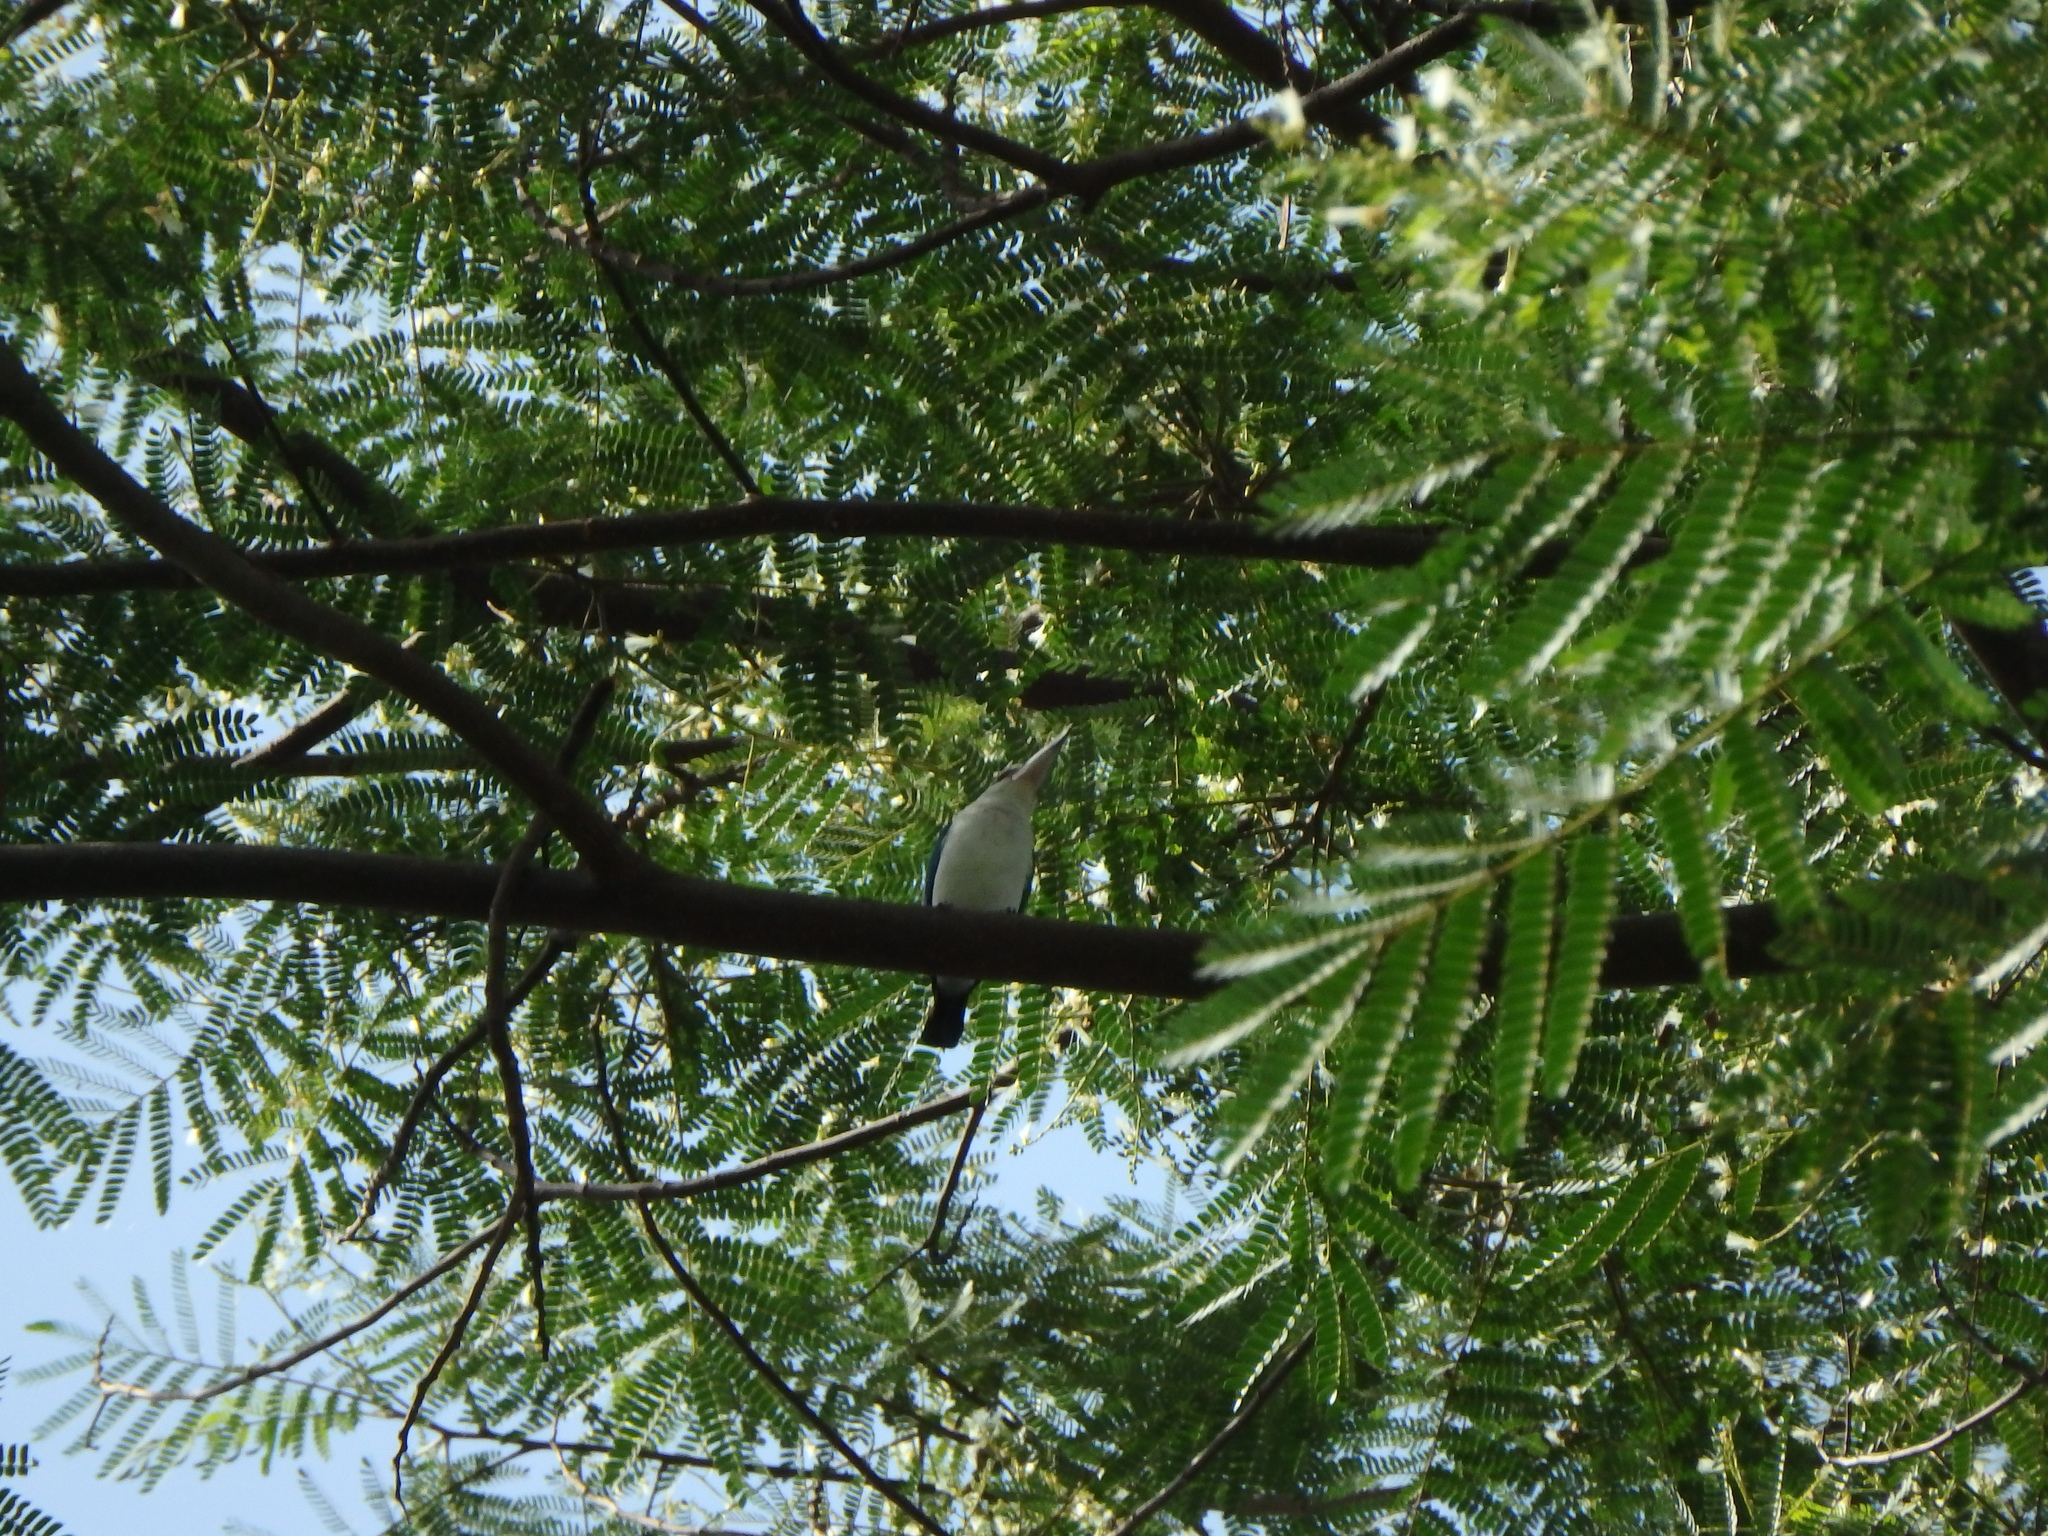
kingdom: Animalia
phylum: Chordata
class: Aves
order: Coraciiformes
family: Alcedinidae
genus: Todiramphus
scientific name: Todiramphus chloris
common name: Collared kingfisher
